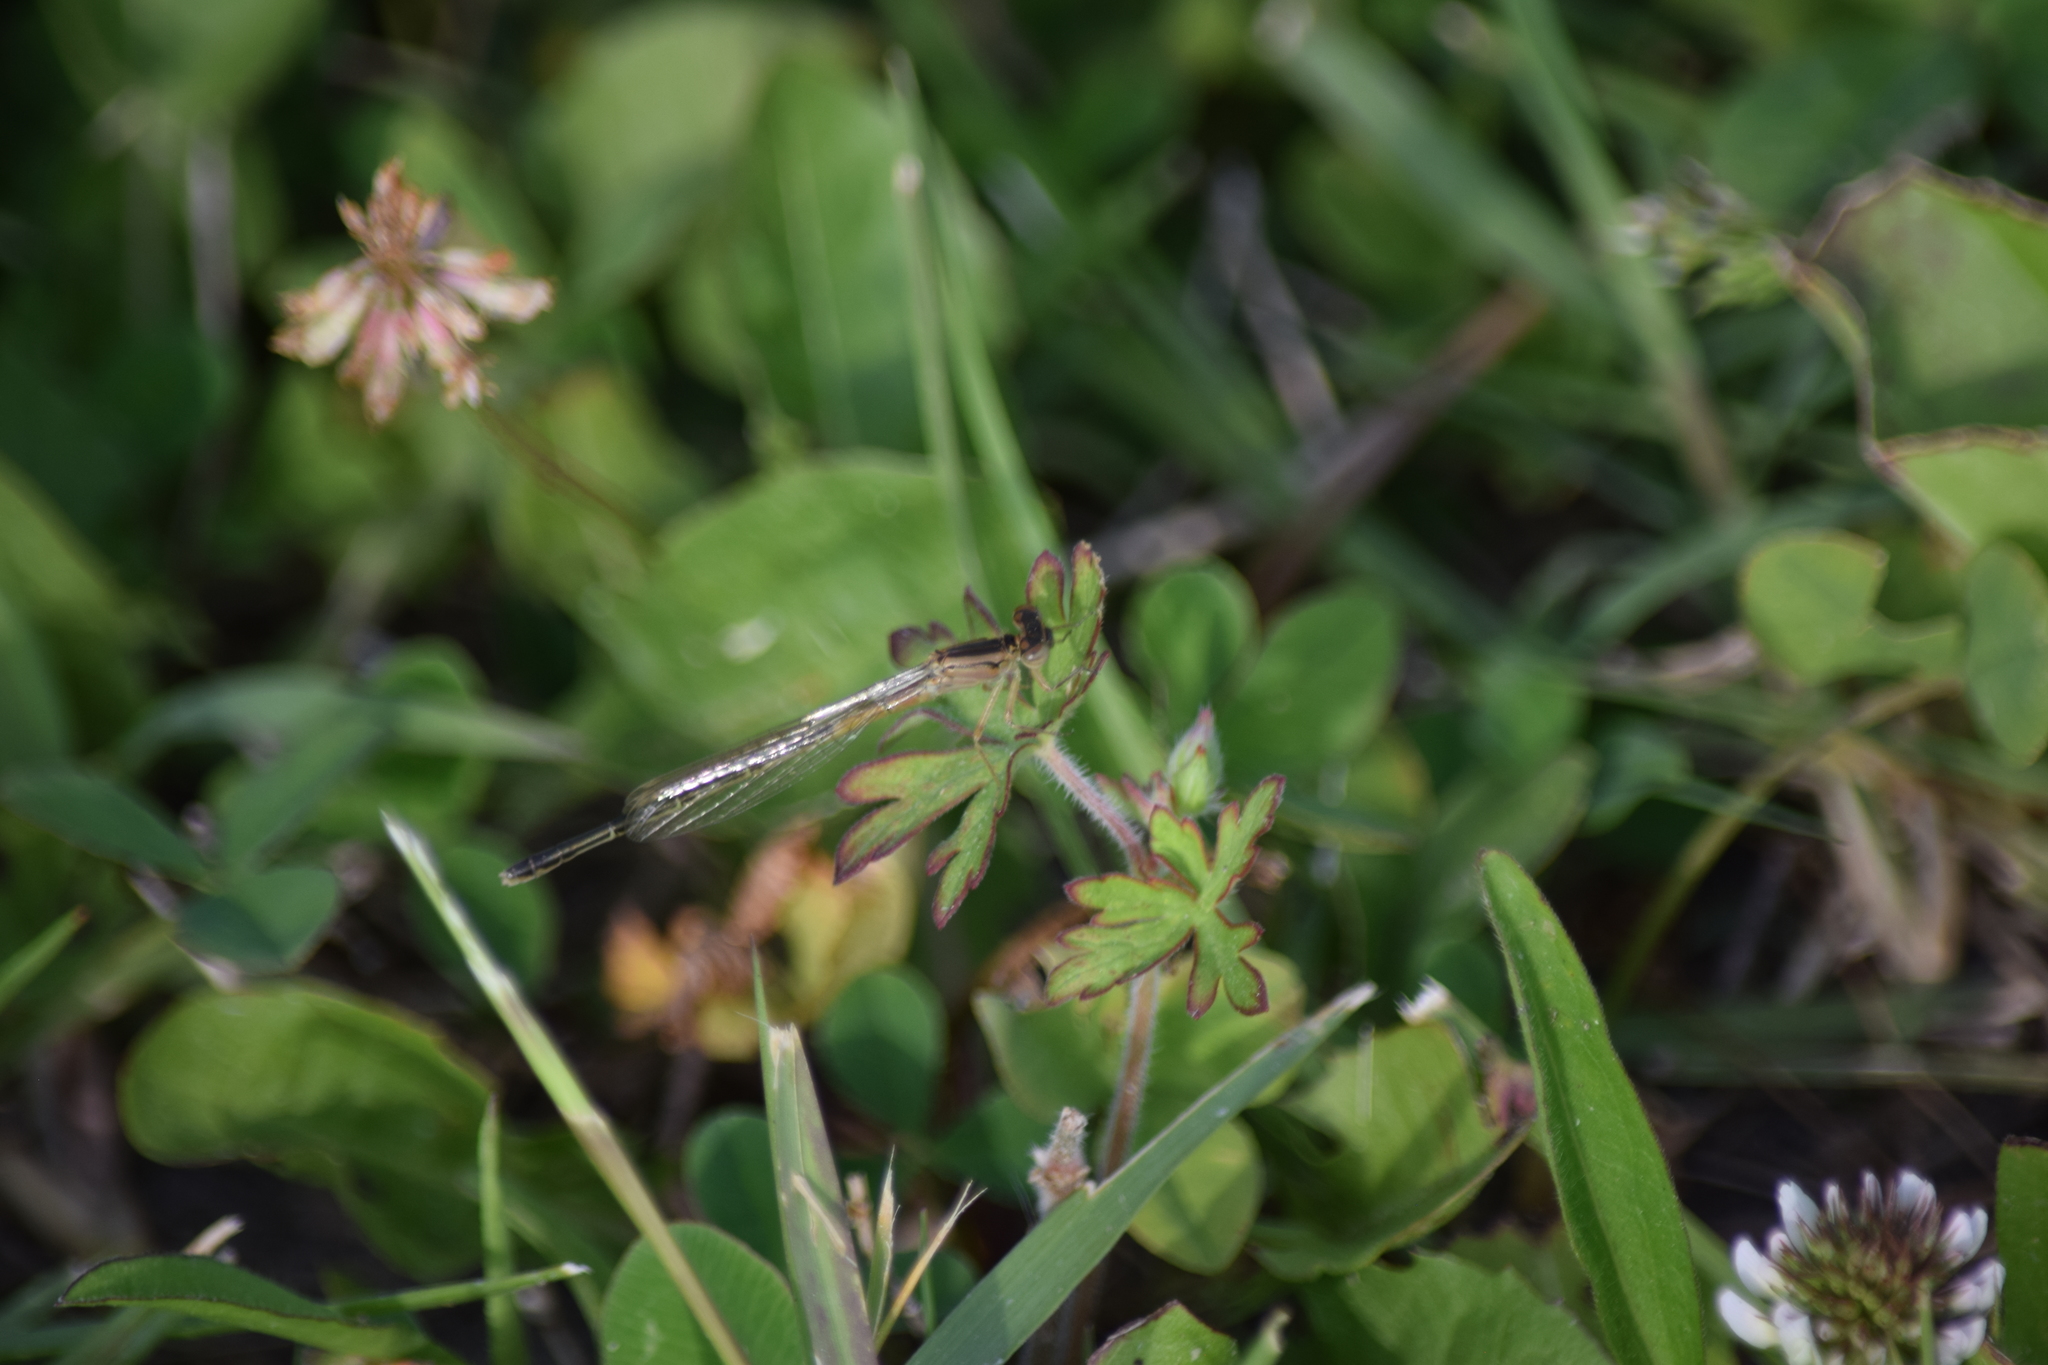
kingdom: Animalia
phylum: Arthropoda
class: Insecta
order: Odonata
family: Coenagrionidae
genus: Ischnura
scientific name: Ischnura ramburii
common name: Rambur's forktail
